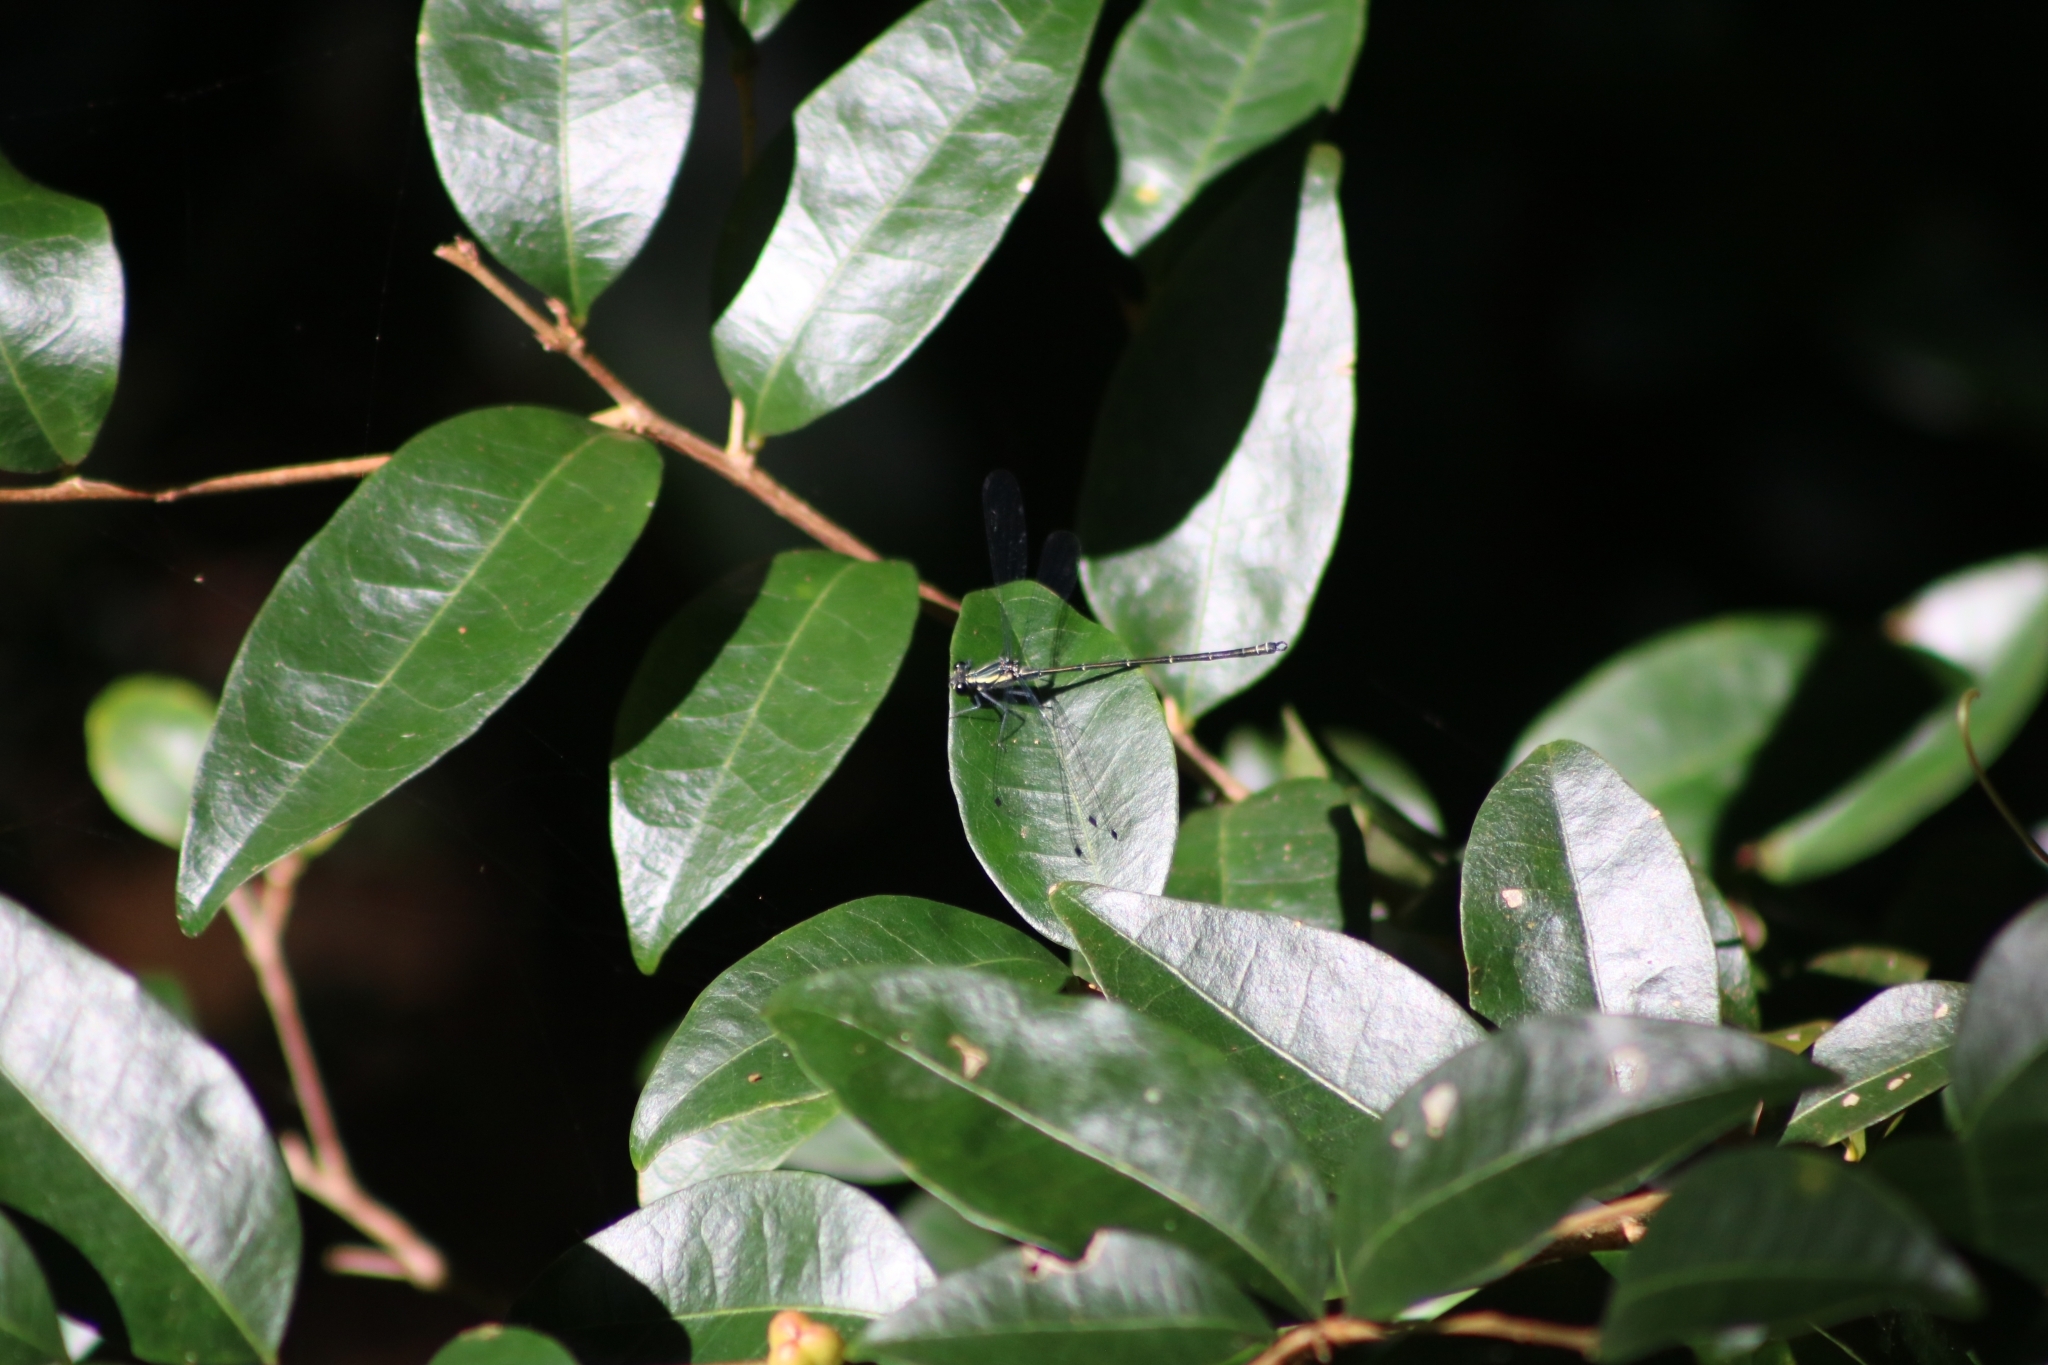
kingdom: Animalia
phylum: Arthropoda
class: Insecta
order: Odonata
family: Argiolestidae
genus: Austroargiolestes
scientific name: Austroargiolestes icteromelas
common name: Common flatwing
